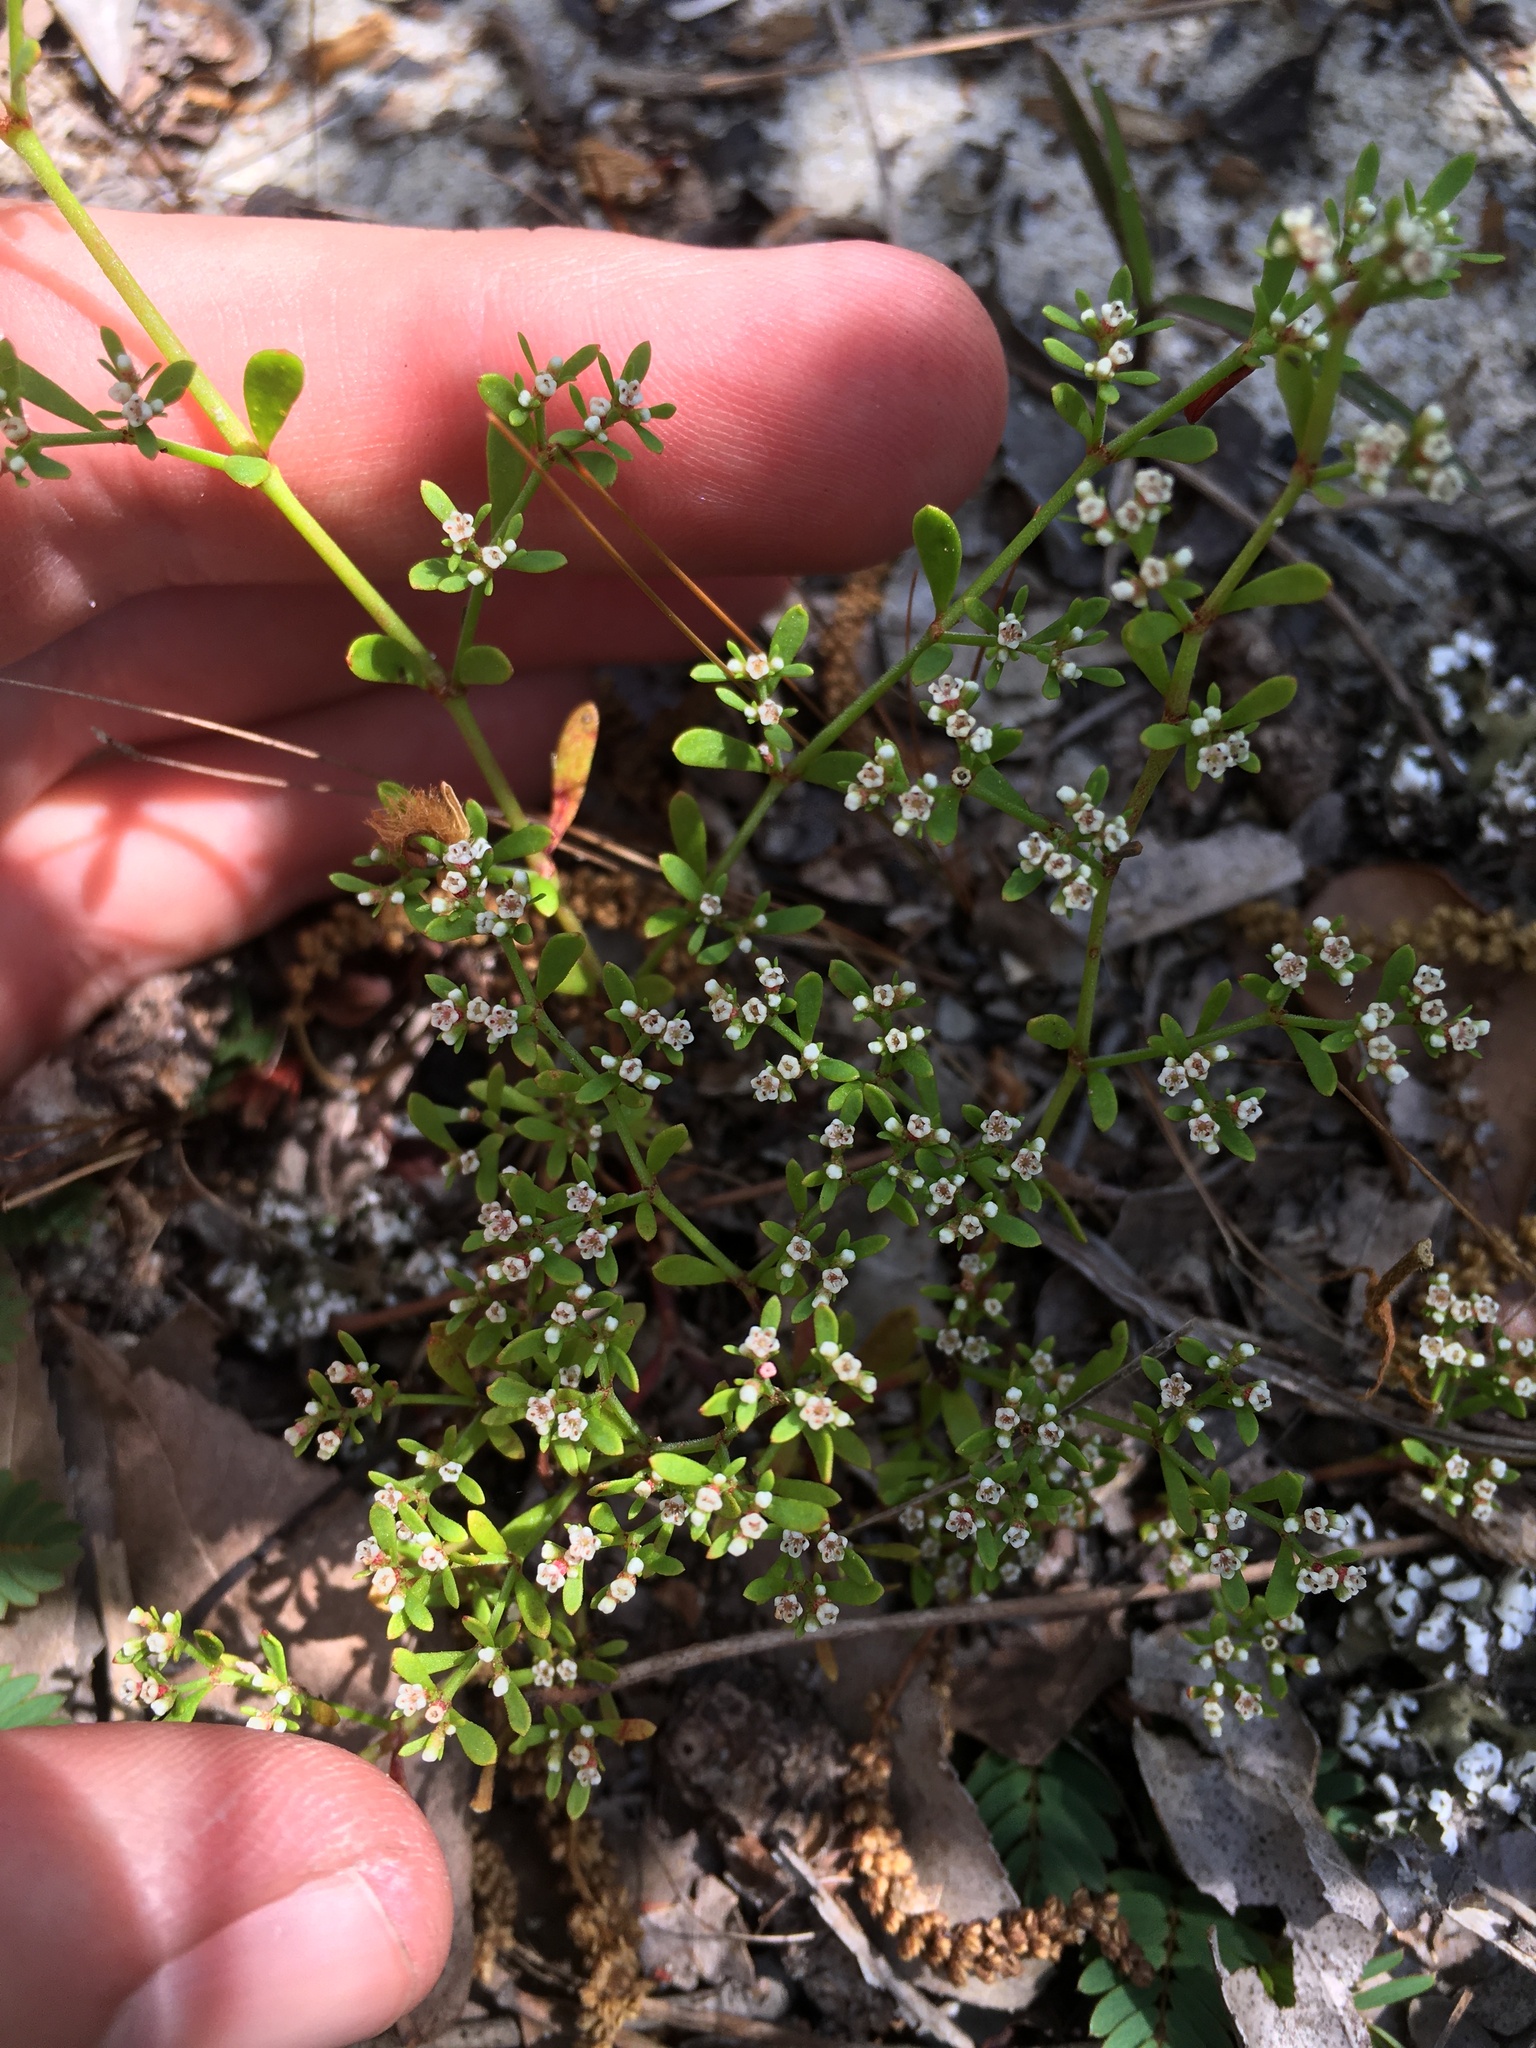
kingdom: Plantae
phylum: Tracheophyta
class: Magnoliopsida
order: Caryophyllales
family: Caryophyllaceae
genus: Paronychia
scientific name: Paronychia americana
